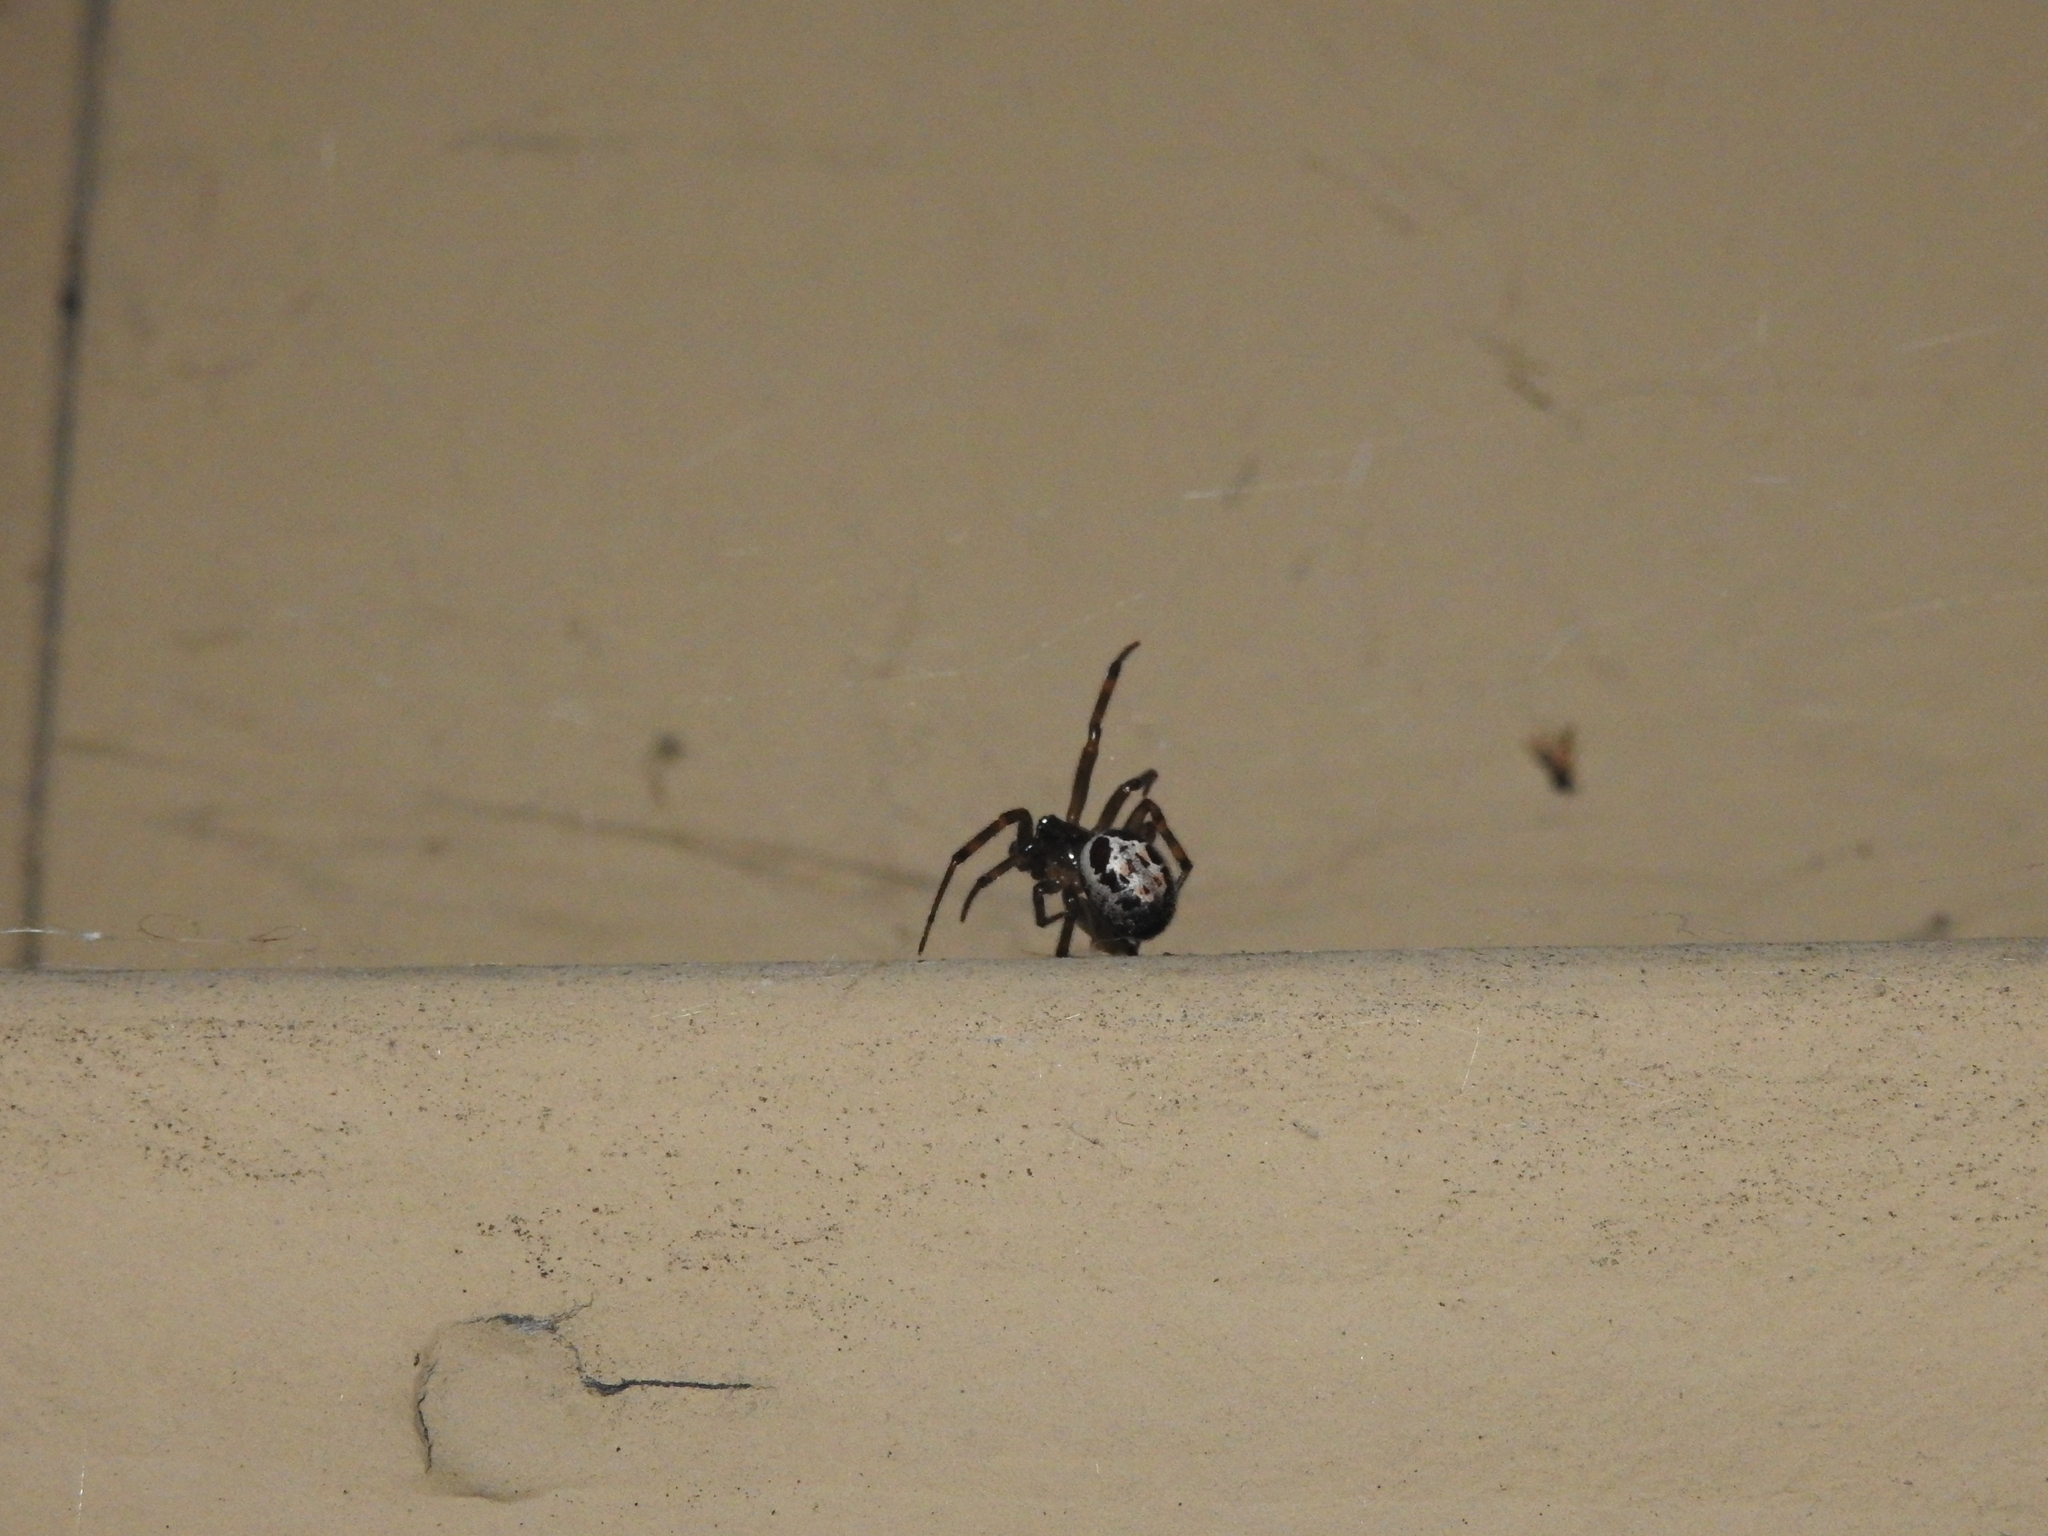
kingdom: Animalia
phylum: Arthropoda
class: Arachnida
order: Araneae
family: Theridiidae
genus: Steatoda
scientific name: Steatoda nobilis
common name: Cobweb weaver
